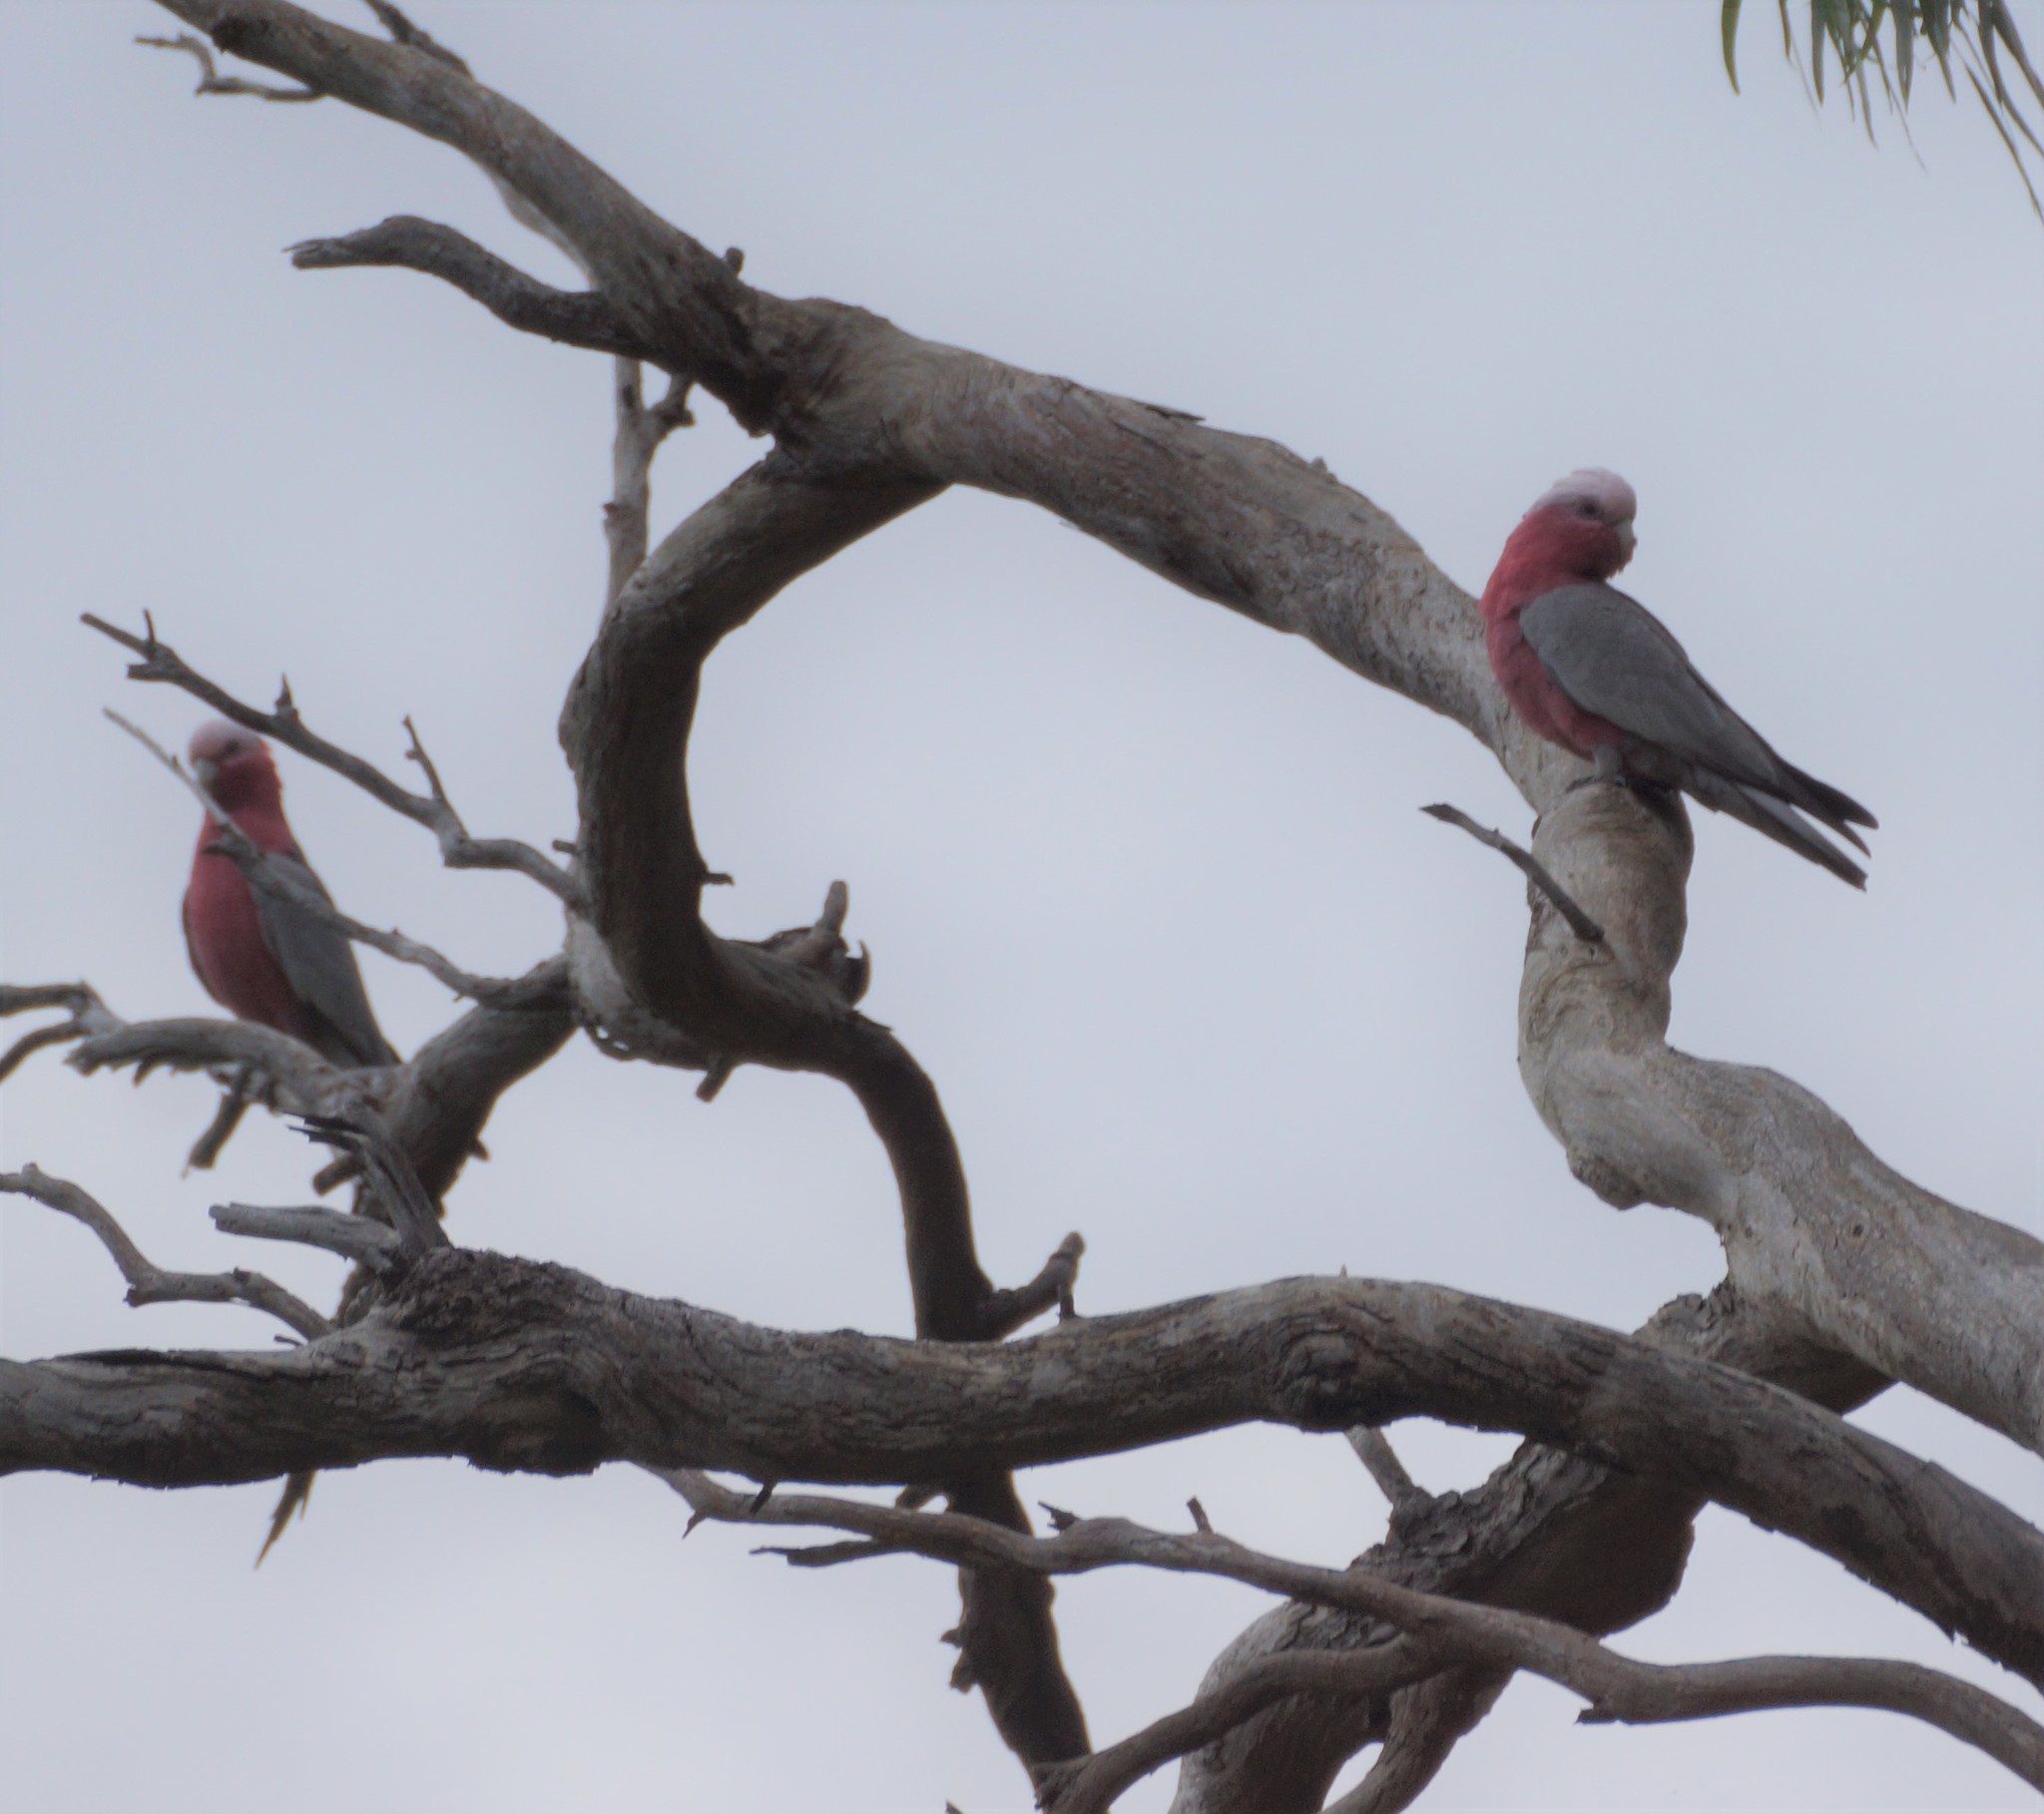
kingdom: Animalia
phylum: Chordata
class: Aves
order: Psittaciformes
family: Psittacidae
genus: Eolophus
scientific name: Eolophus roseicapilla
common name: Galah
